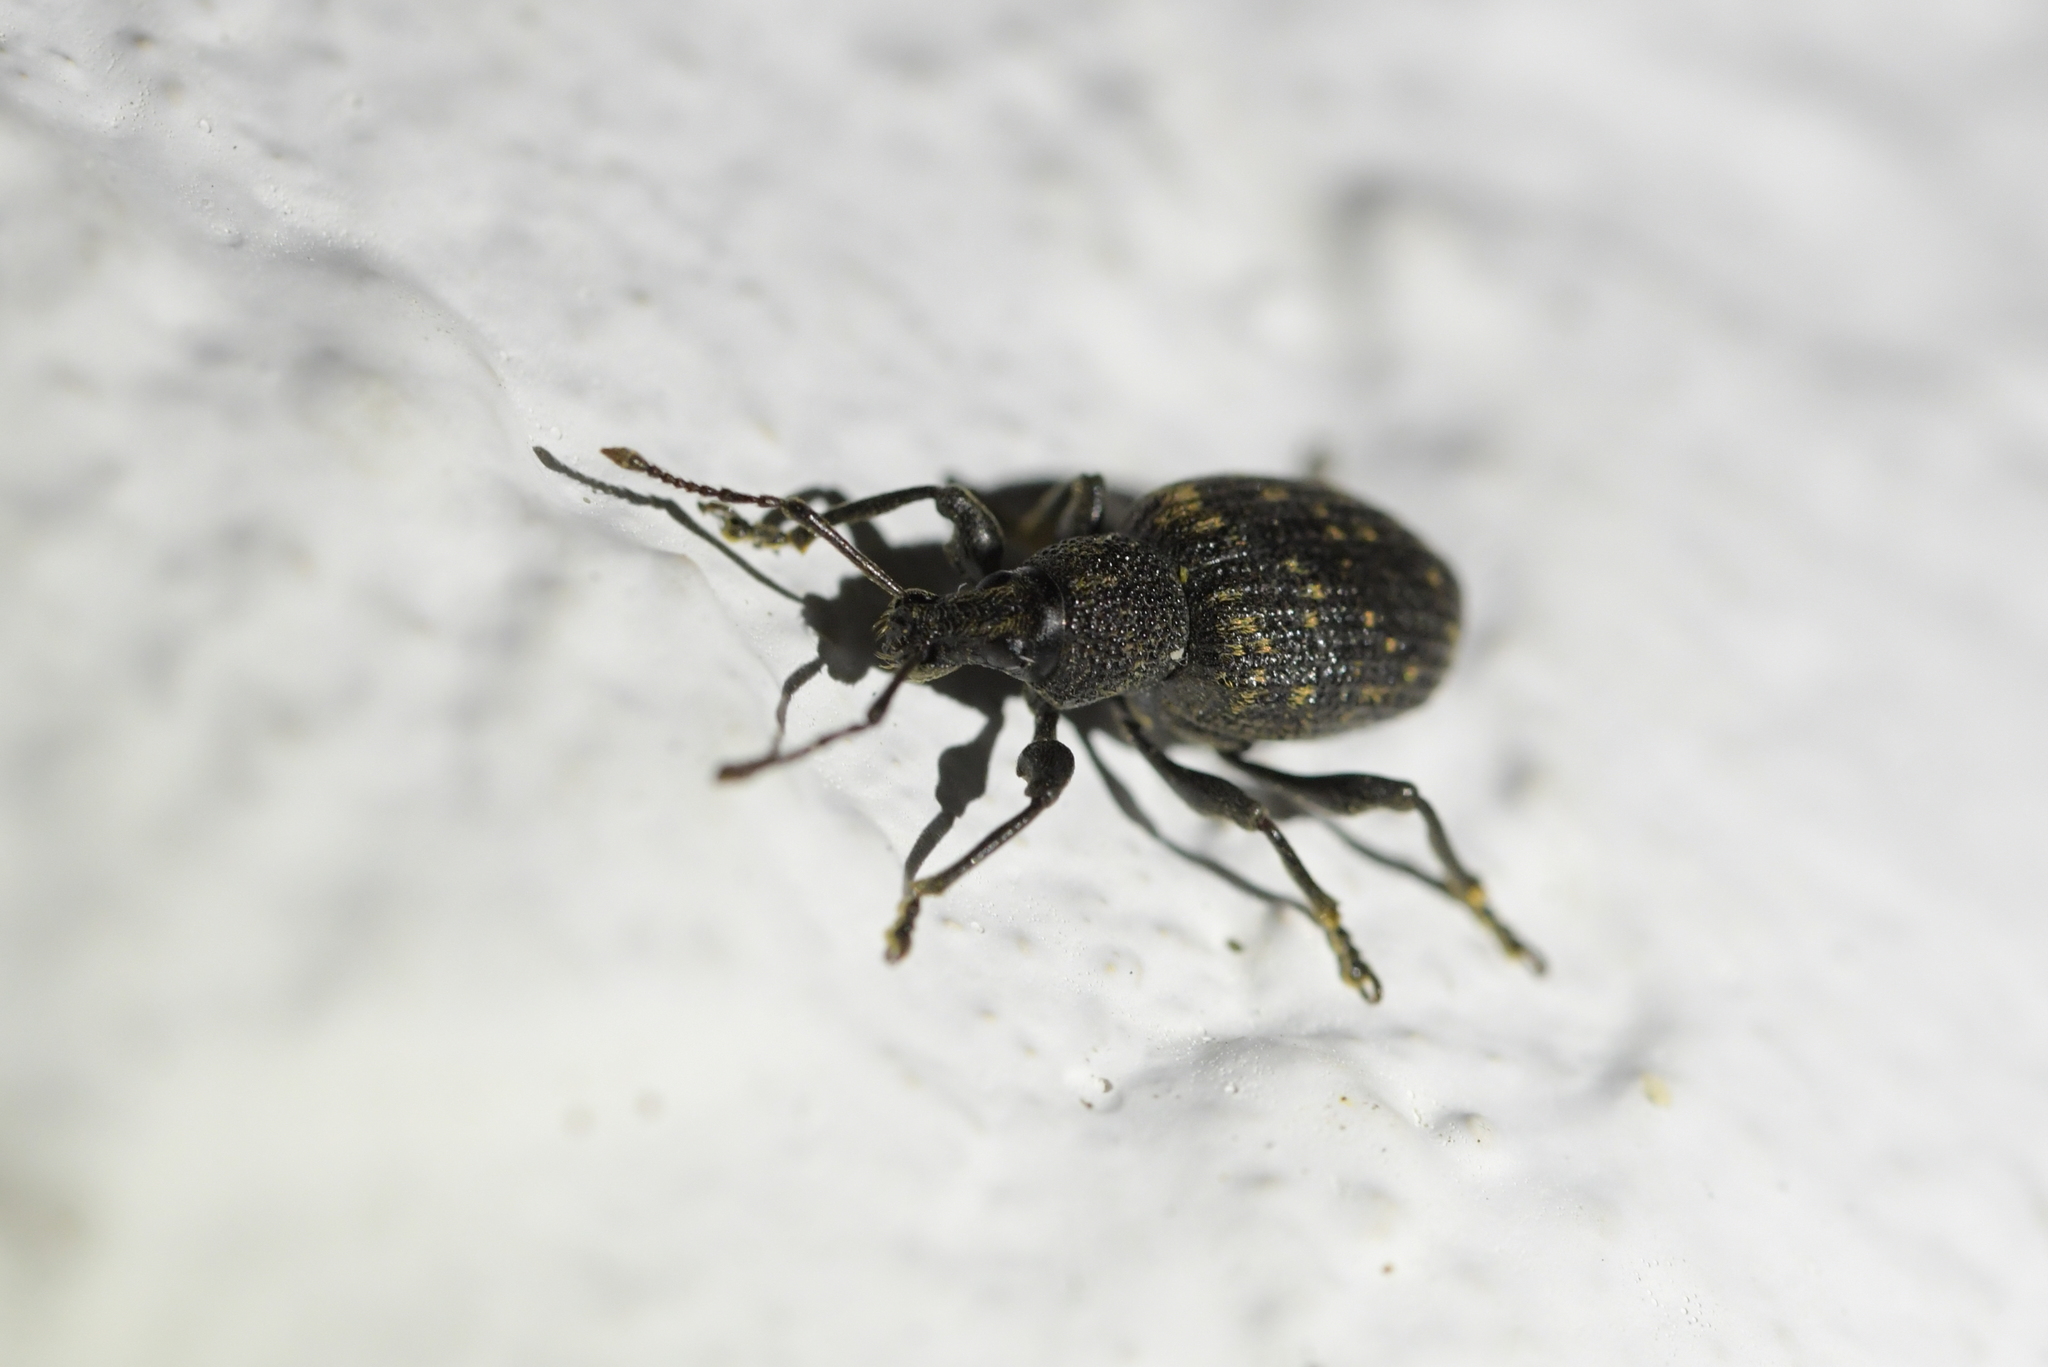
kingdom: Animalia
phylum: Arthropoda
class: Insecta
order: Coleoptera
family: Curculionidae
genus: Otiorhynchus
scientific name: Otiorhynchus sulcatus
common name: Black vine weevil
